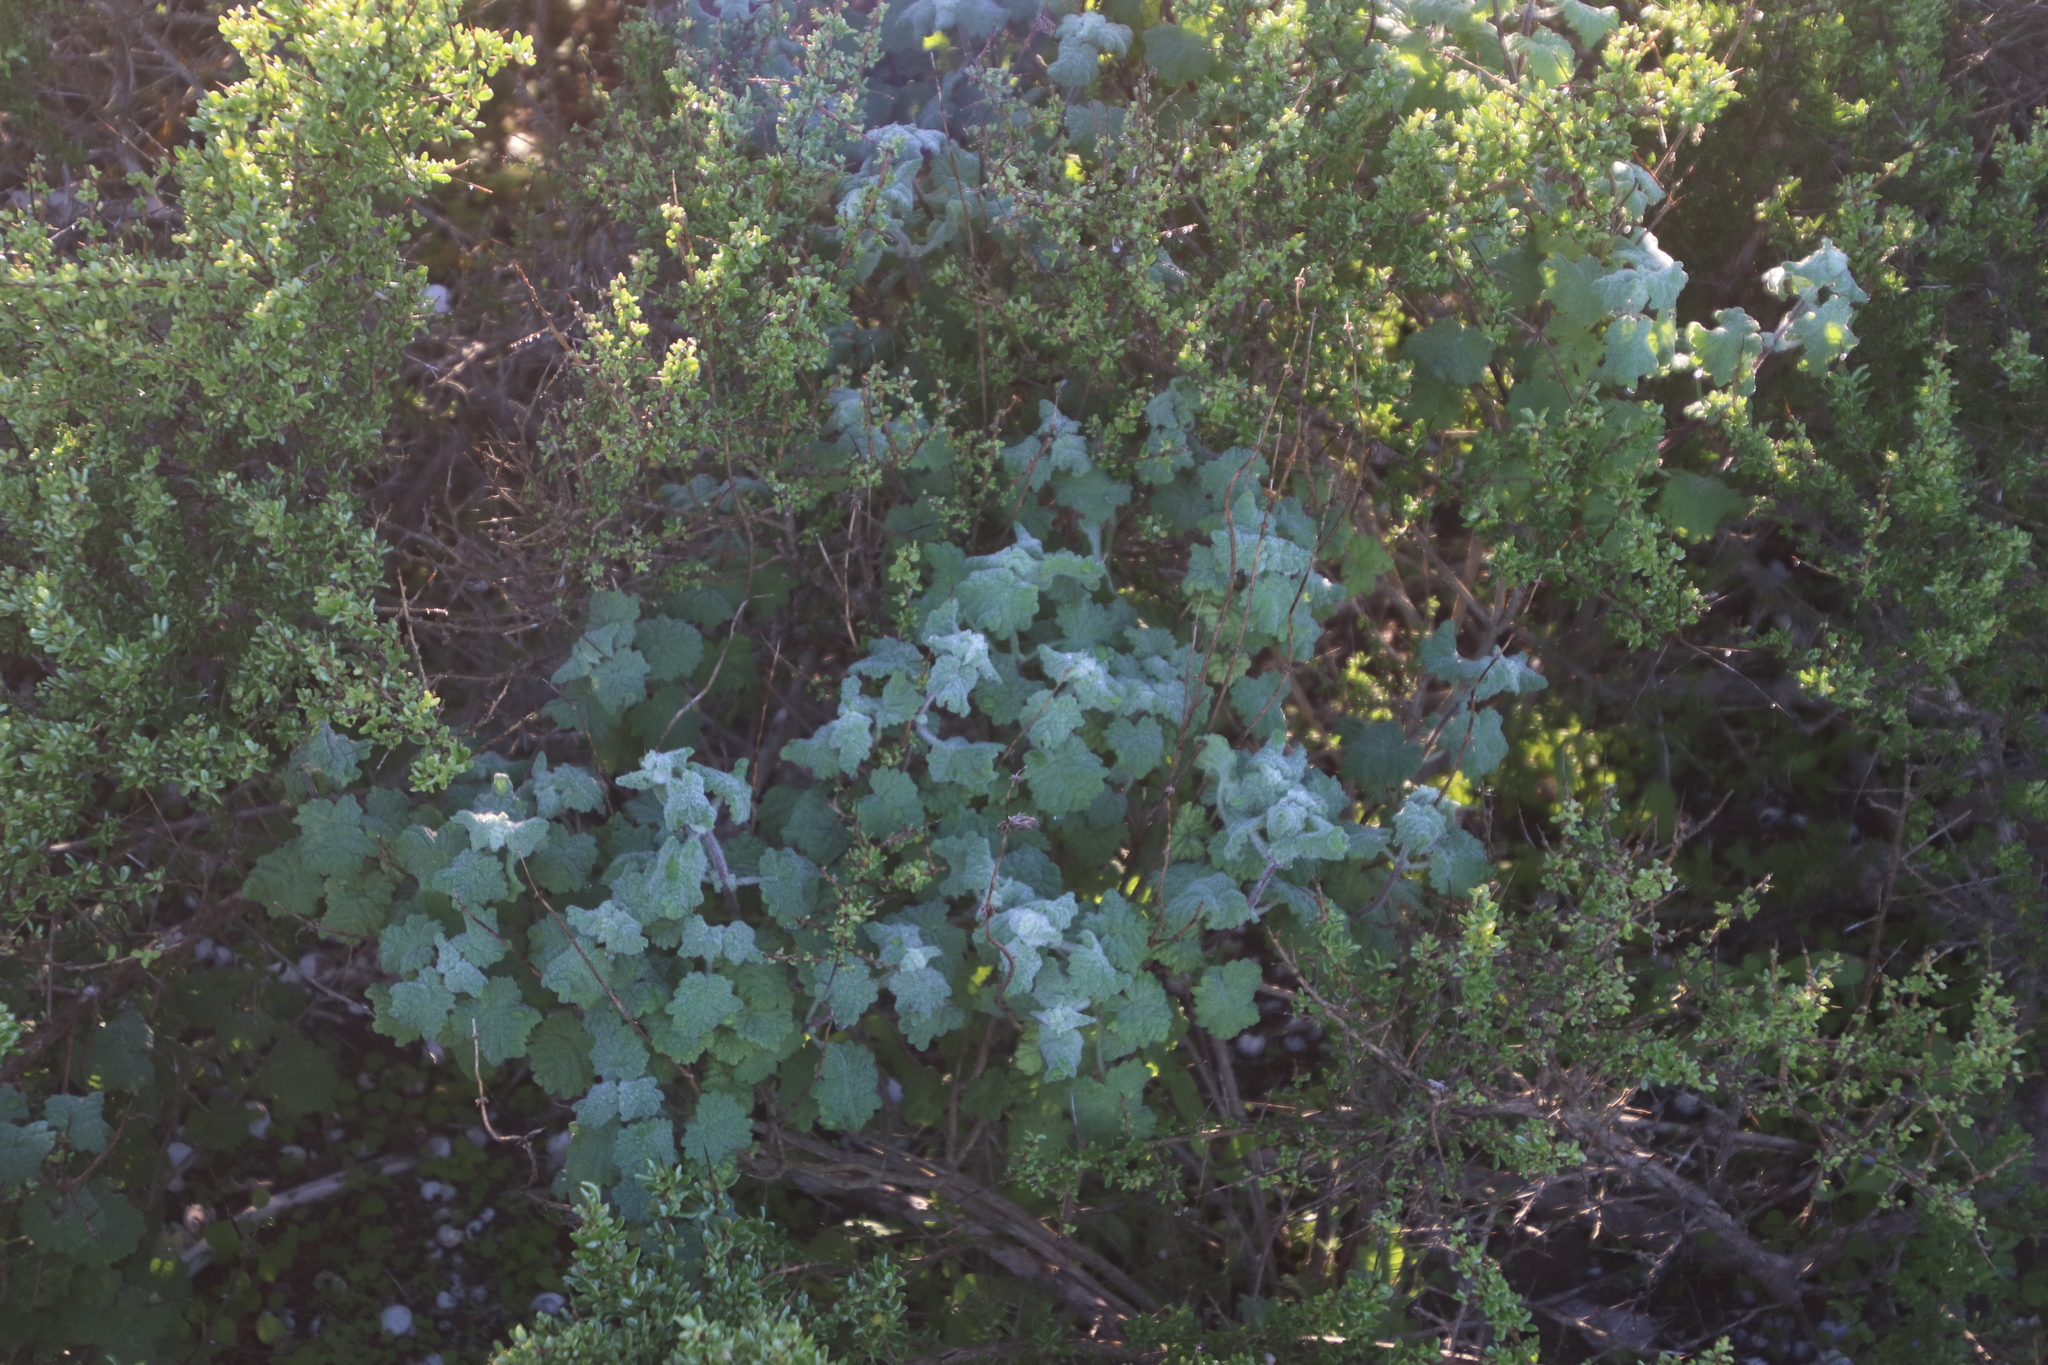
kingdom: Plantae
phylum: Tracheophyta
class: Magnoliopsida
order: Lamiales
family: Lamiaceae
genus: Pseudodictamnus
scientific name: Pseudodictamnus africanus
